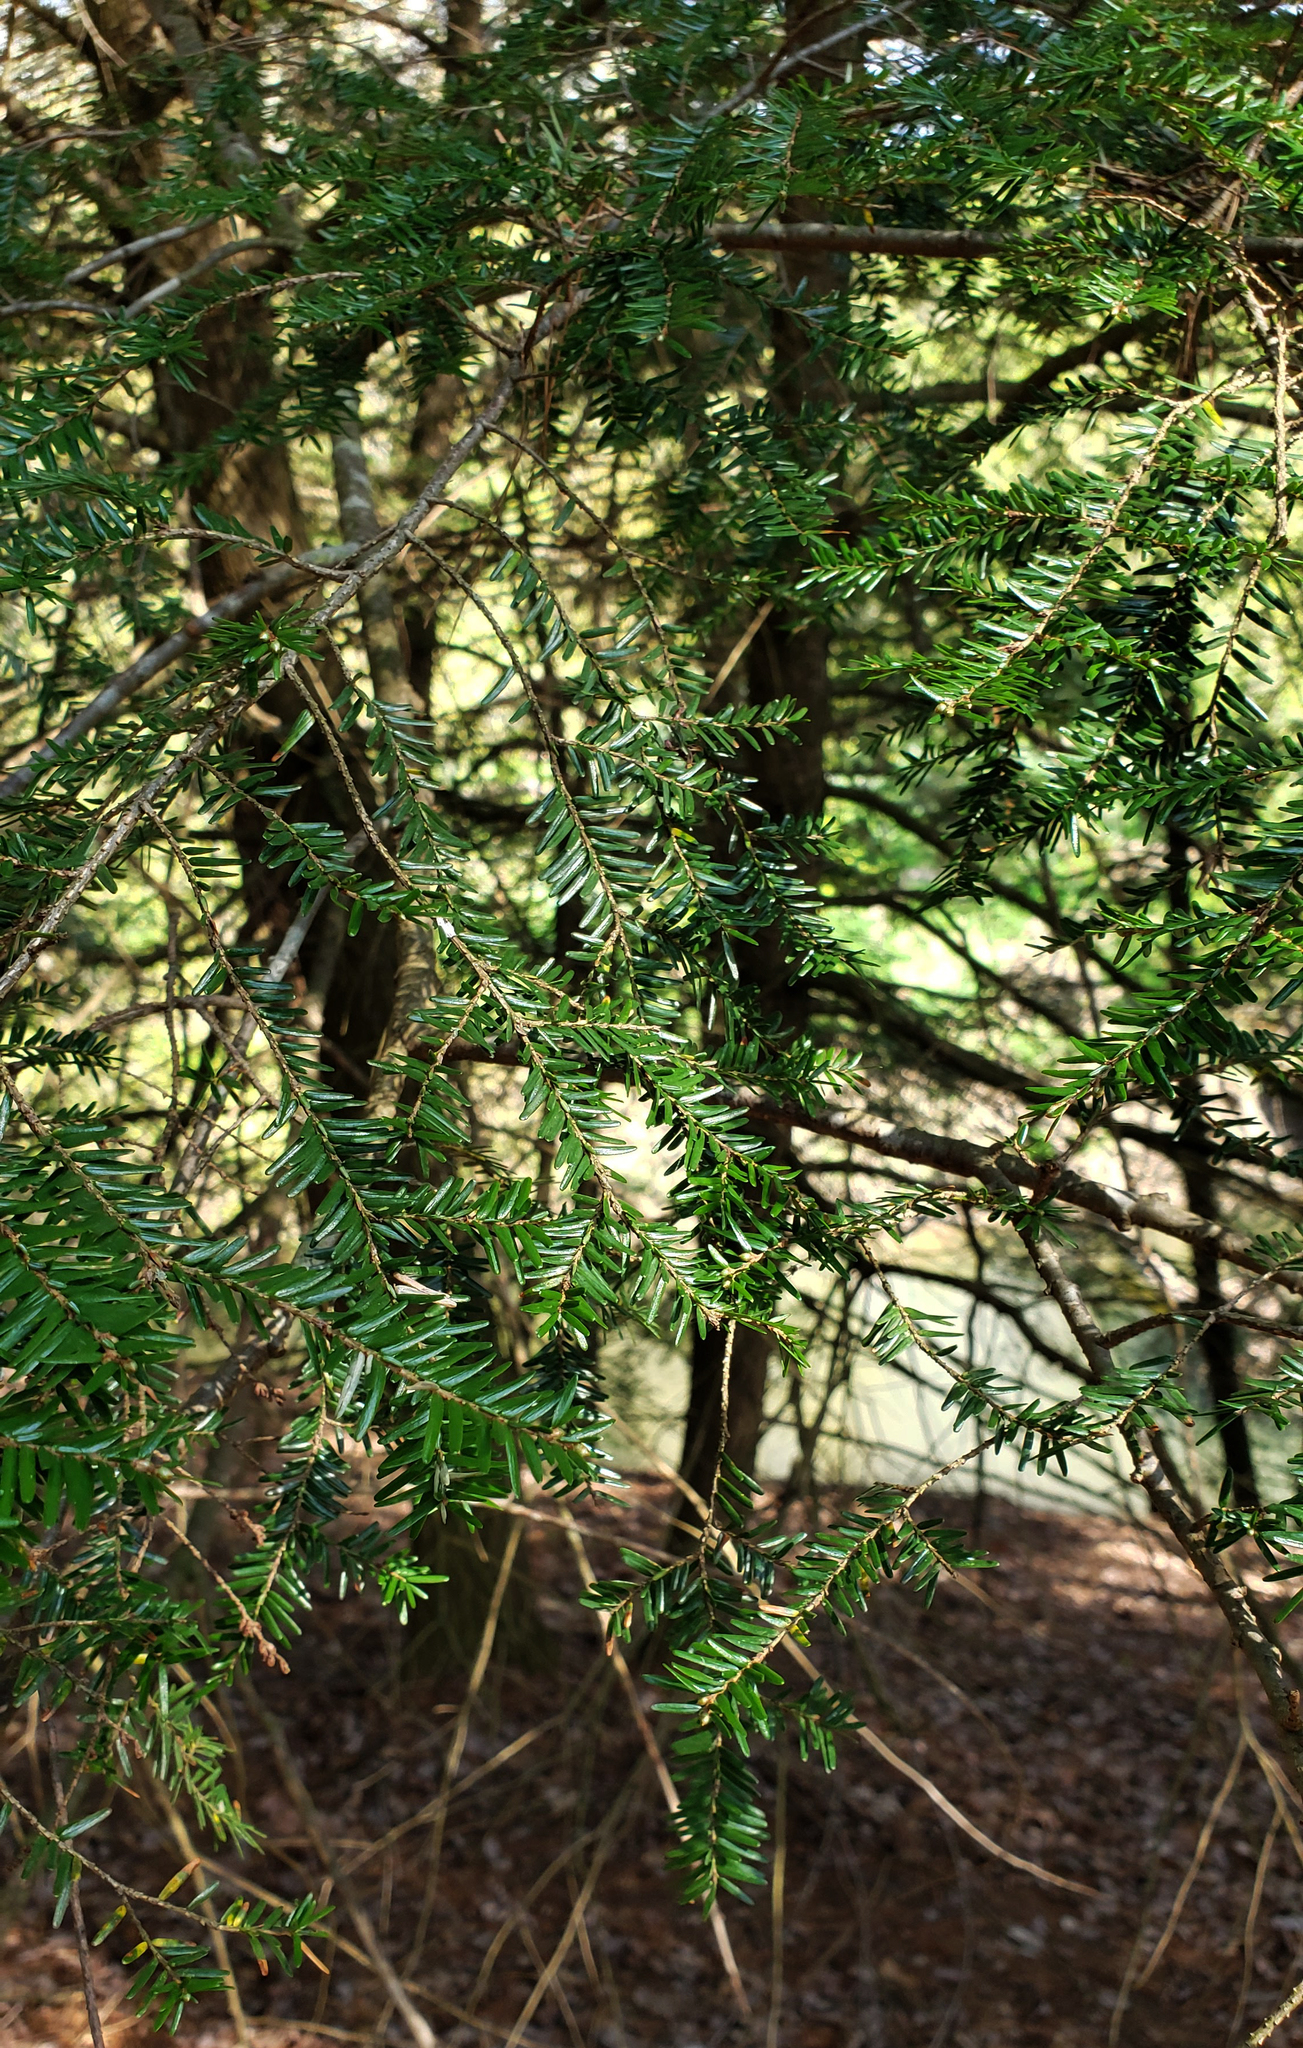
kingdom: Plantae
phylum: Tracheophyta
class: Pinopsida
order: Pinales
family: Pinaceae
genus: Tsuga
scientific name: Tsuga canadensis
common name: Eastern hemlock
